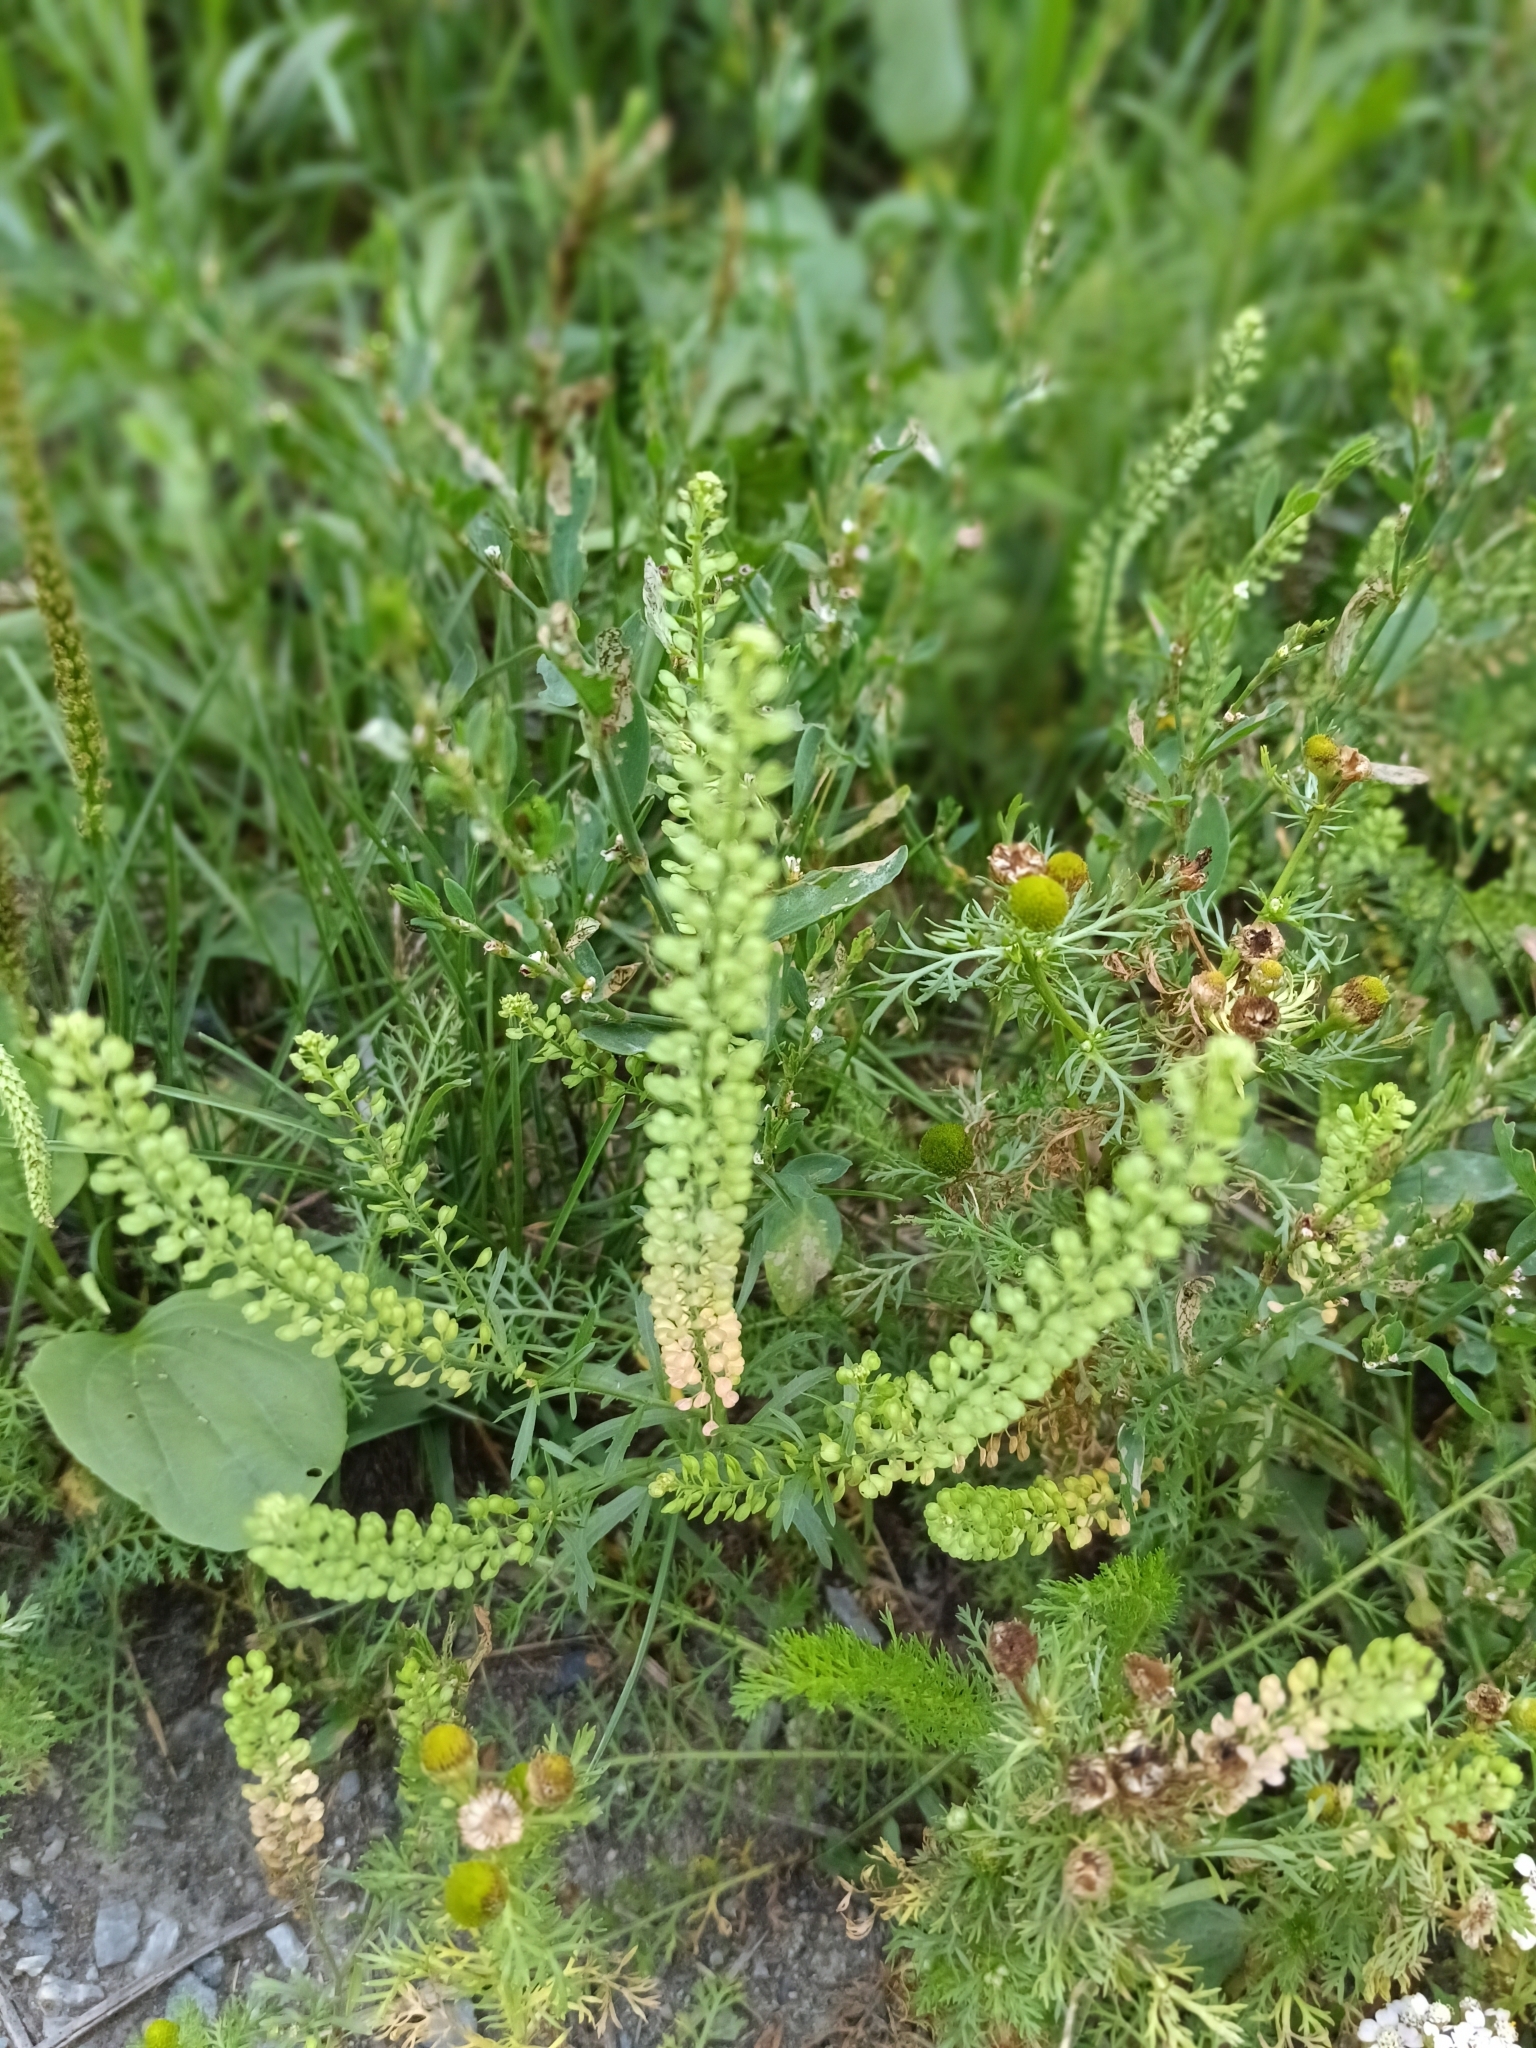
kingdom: Plantae
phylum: Tracheophyta
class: Magnoliopsida
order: Brassicales
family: Brassicaceae
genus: Lepidium
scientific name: Lepidium densiflorum
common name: Miner's pepperwort
